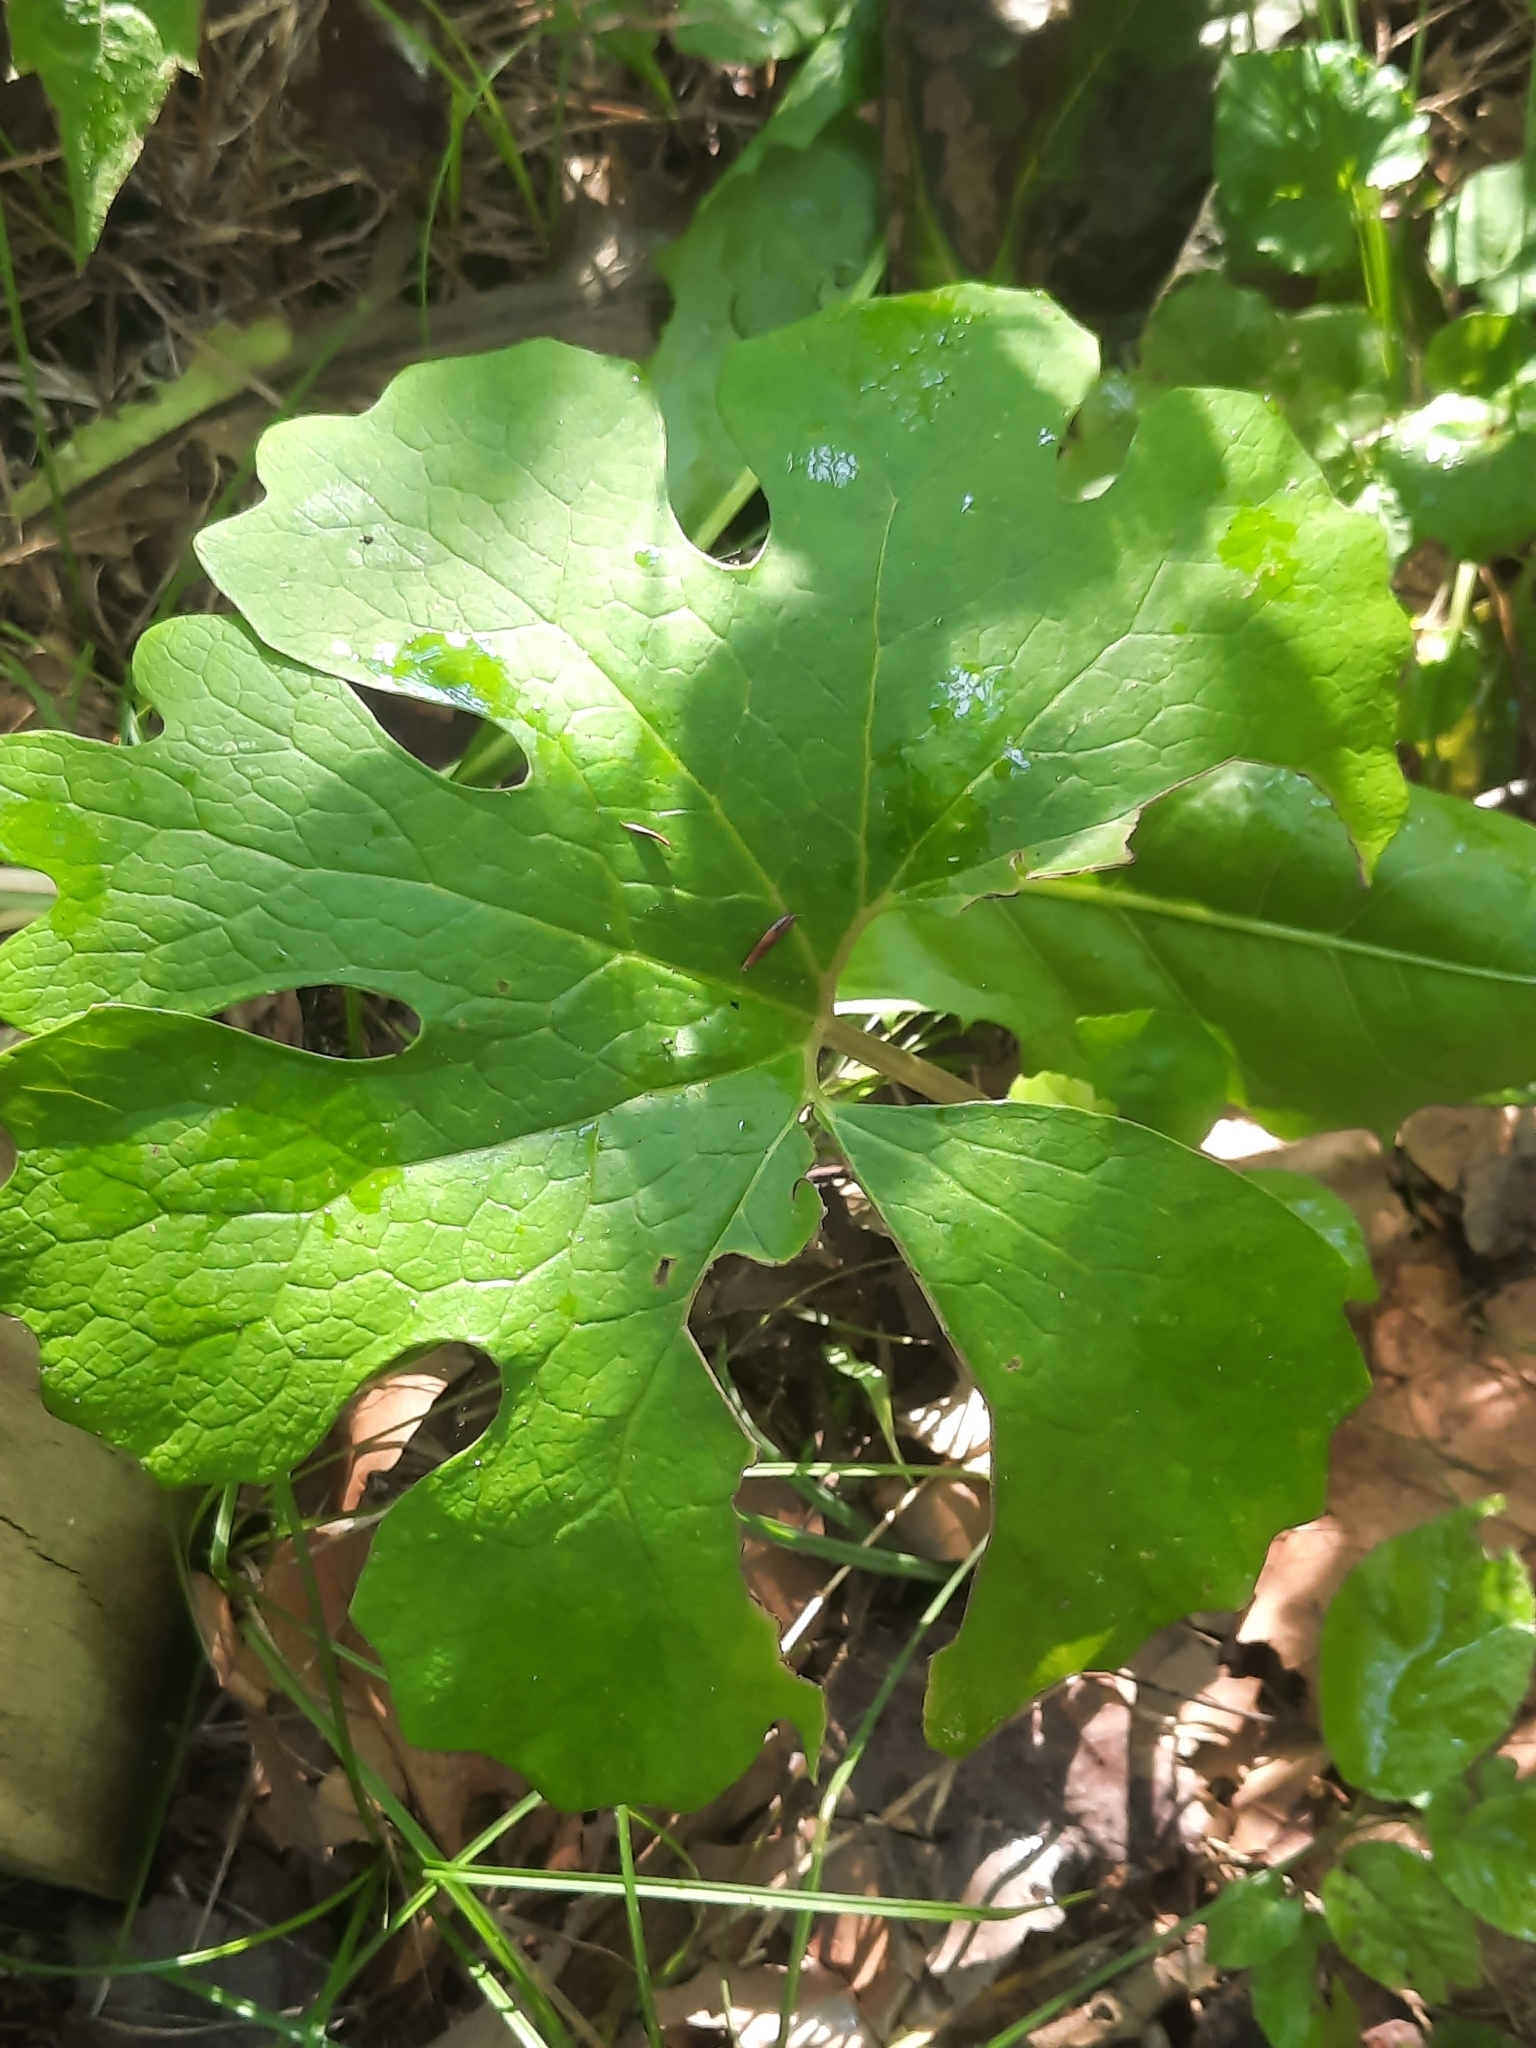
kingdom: Plantae
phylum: Tracheophyta
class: Magnoliopsida
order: Ranunculales
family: Papaveraceae
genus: Sanguinaria
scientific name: Sanguinaria canadensis
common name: Bloodroot
